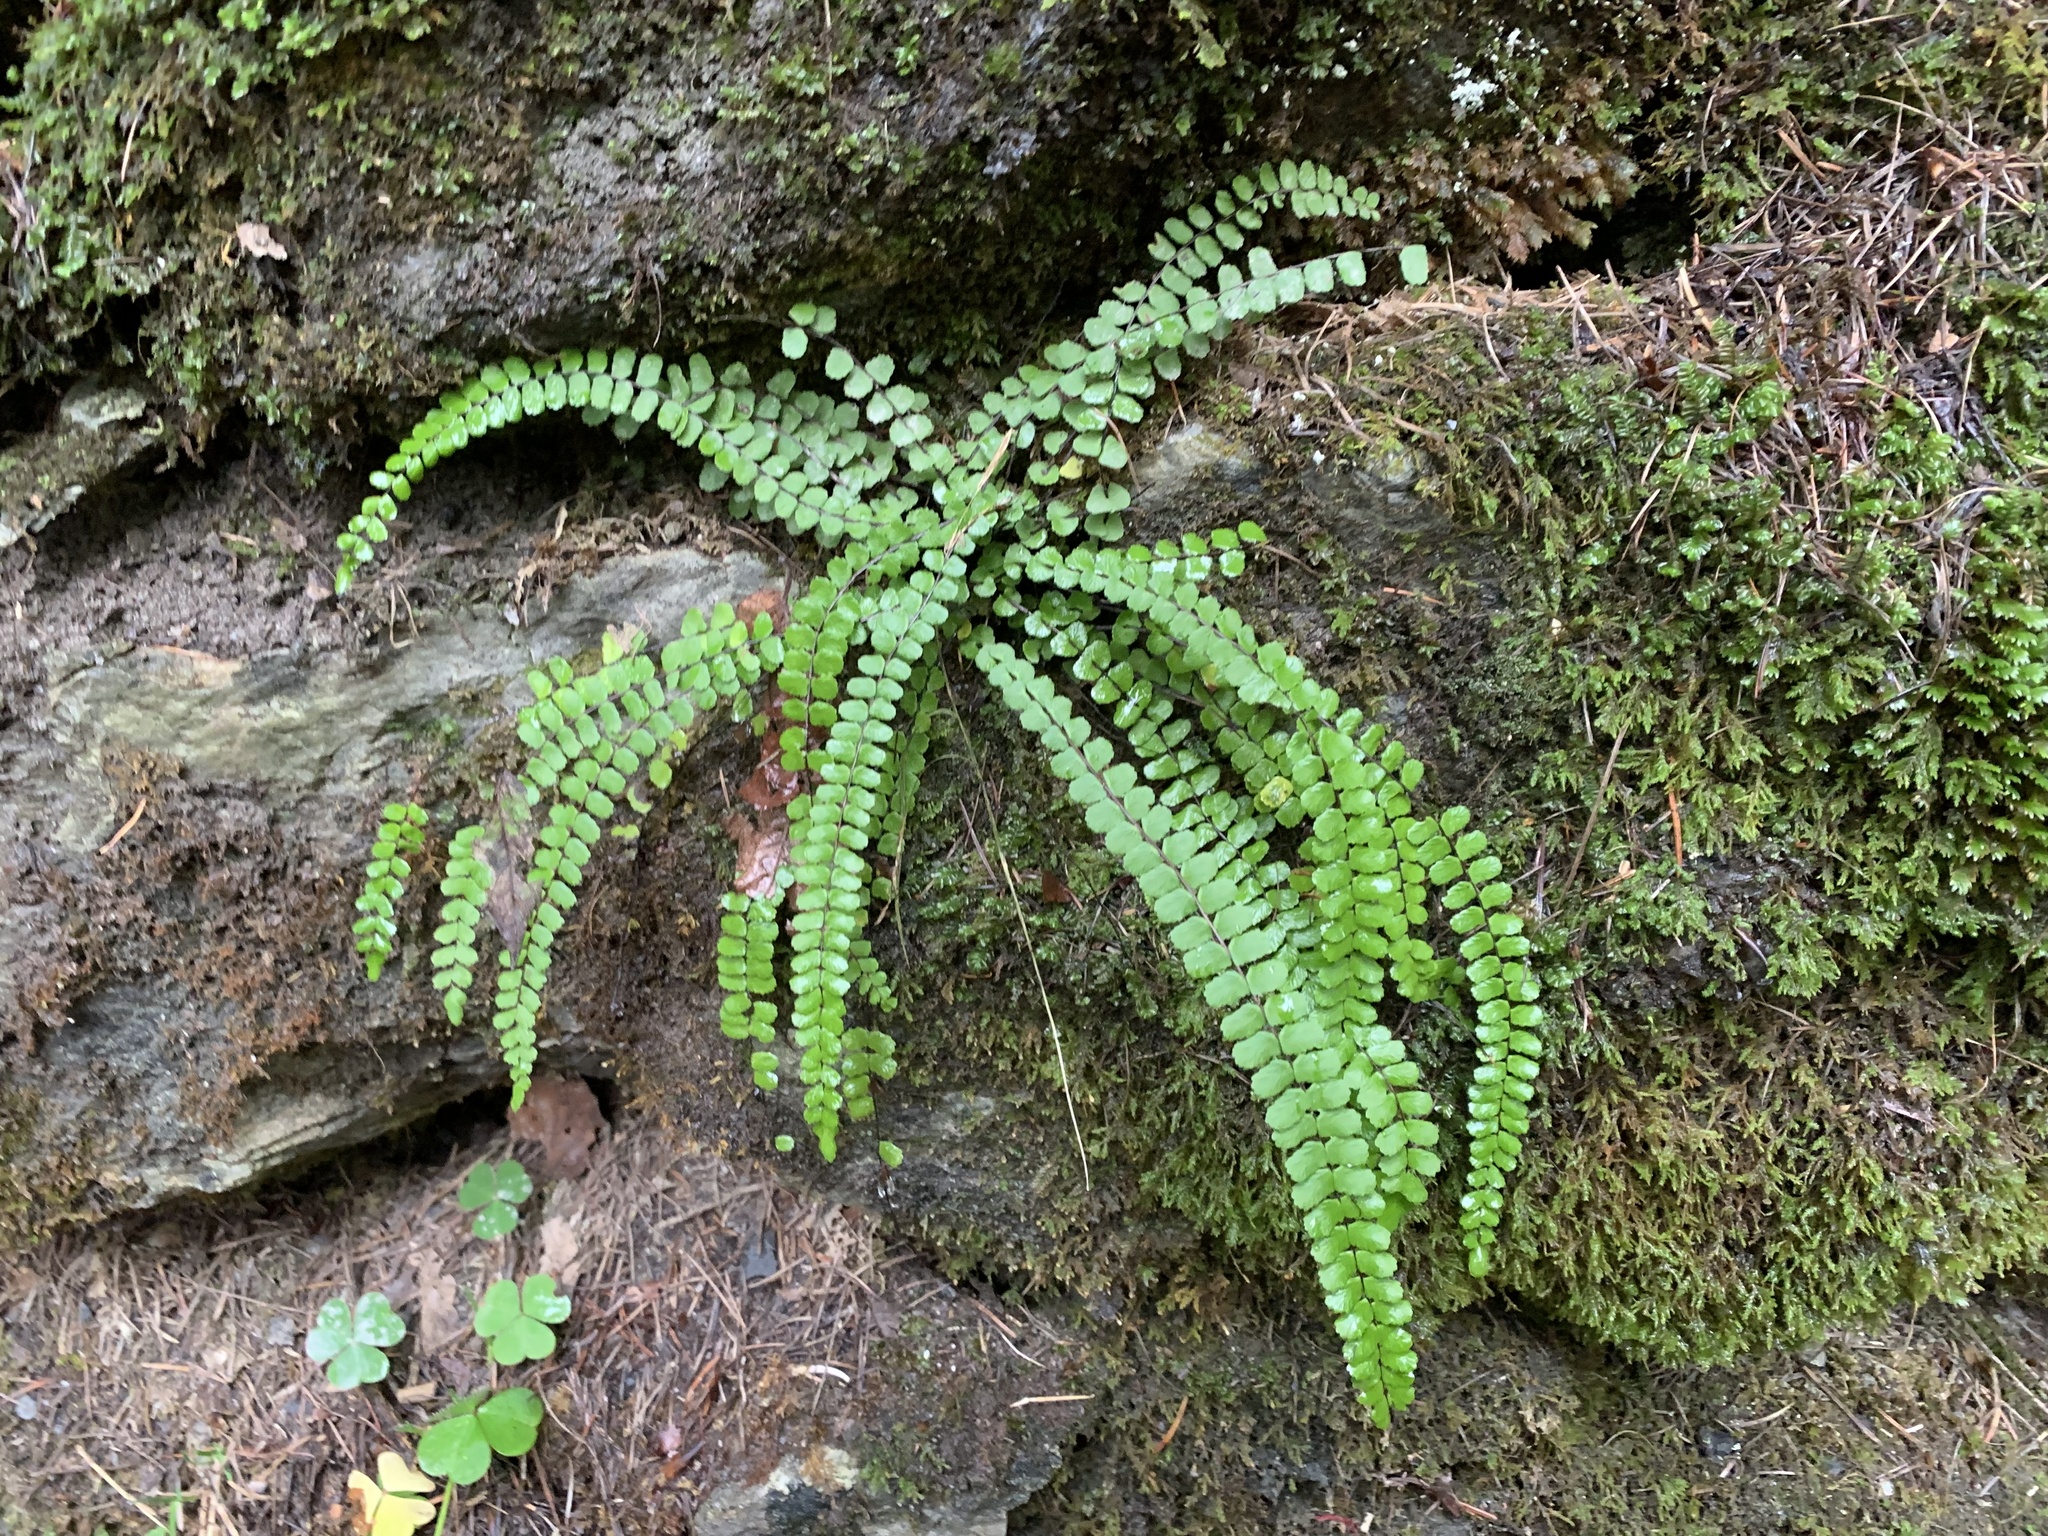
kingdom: Plantae
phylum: Tracheophyta
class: Polypodiopsida
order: Polypodiales
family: Aspleniaceae
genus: Asplenium
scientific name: Asplenium trichomanes
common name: Maidenhair spleenwort
